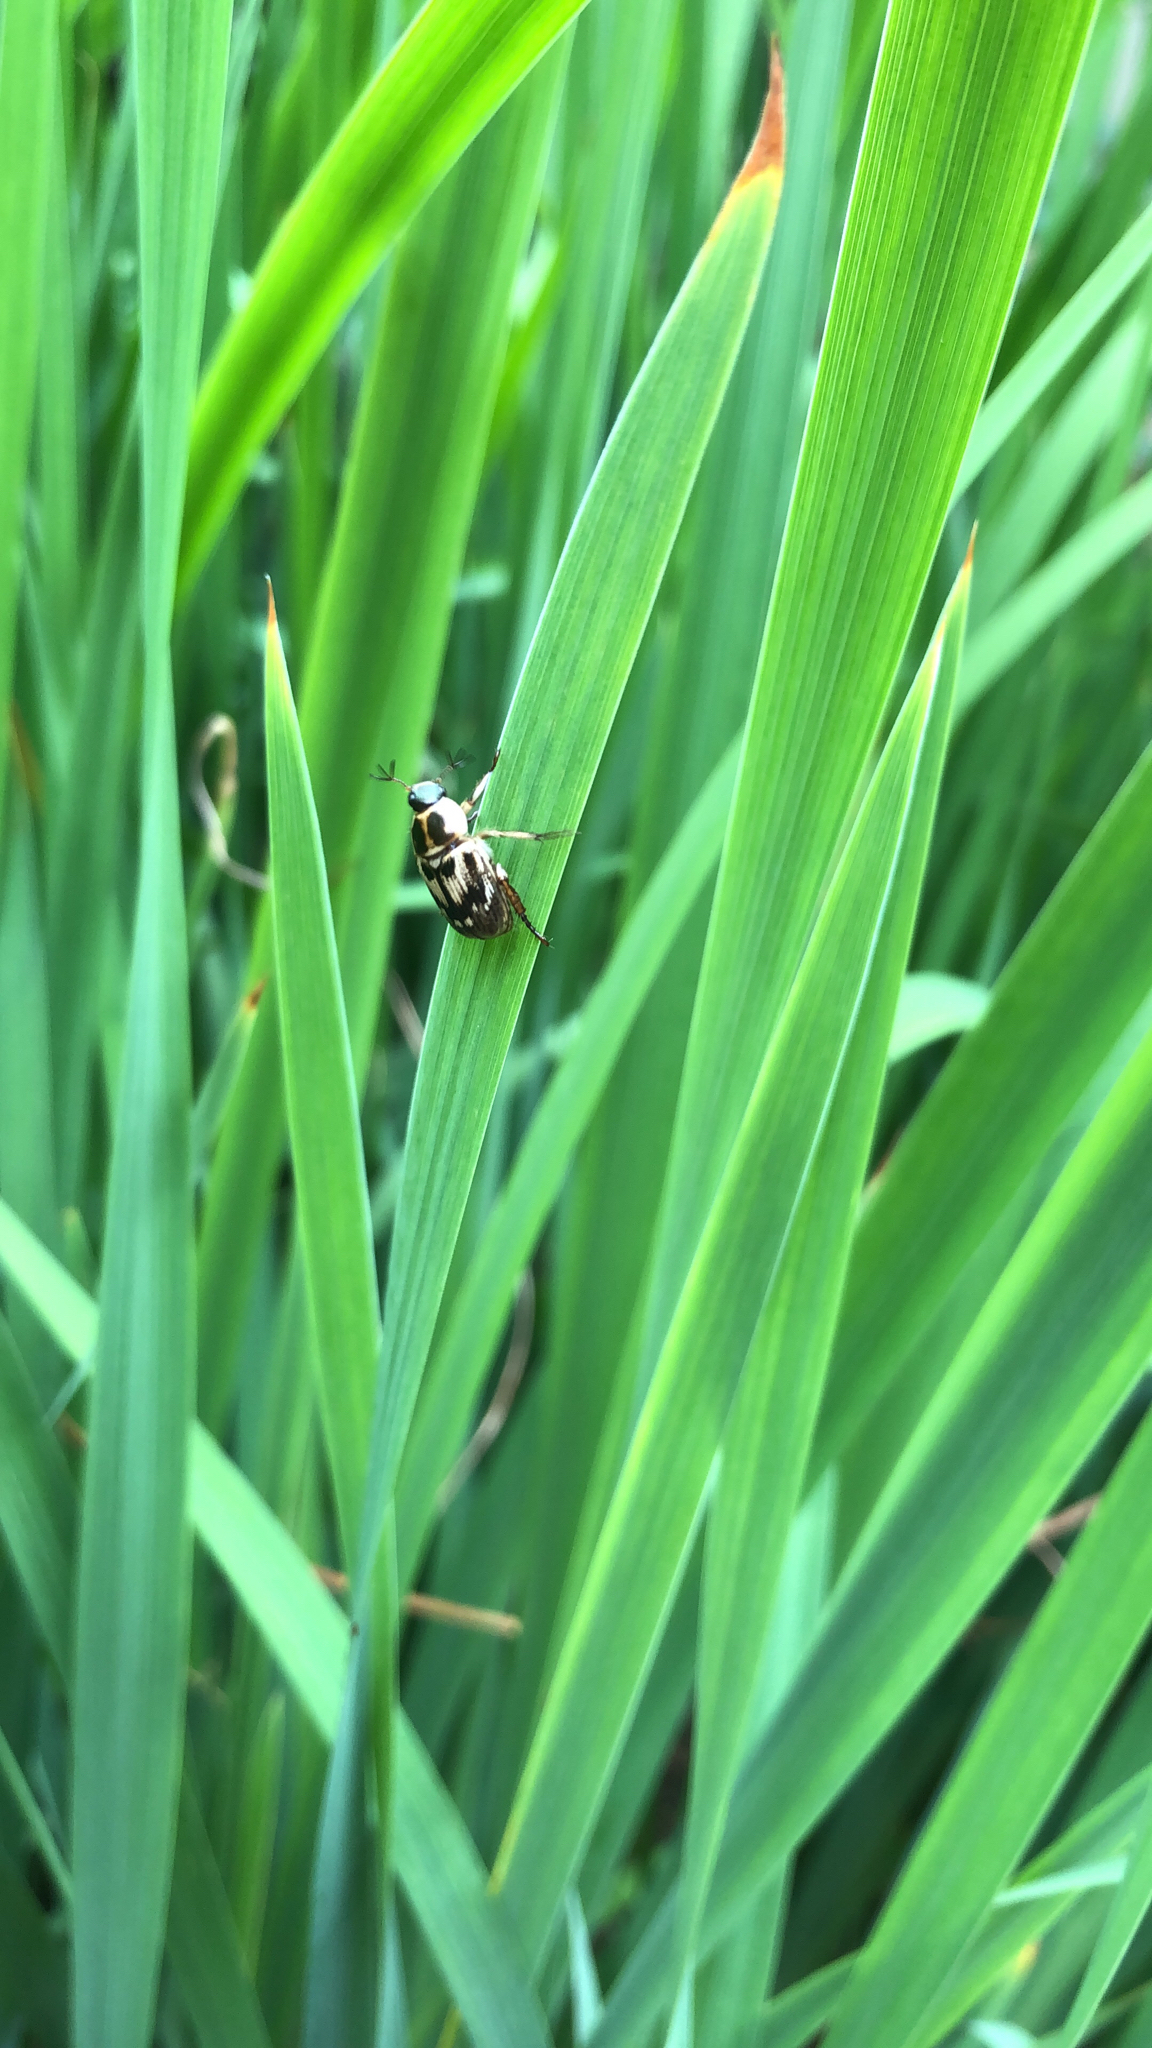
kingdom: Animalia
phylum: Arthropoda
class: Insecta
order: Coleoptera
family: Scarabaeidae
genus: Exomala
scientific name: Exomala orientalis
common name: Oriental beetle
